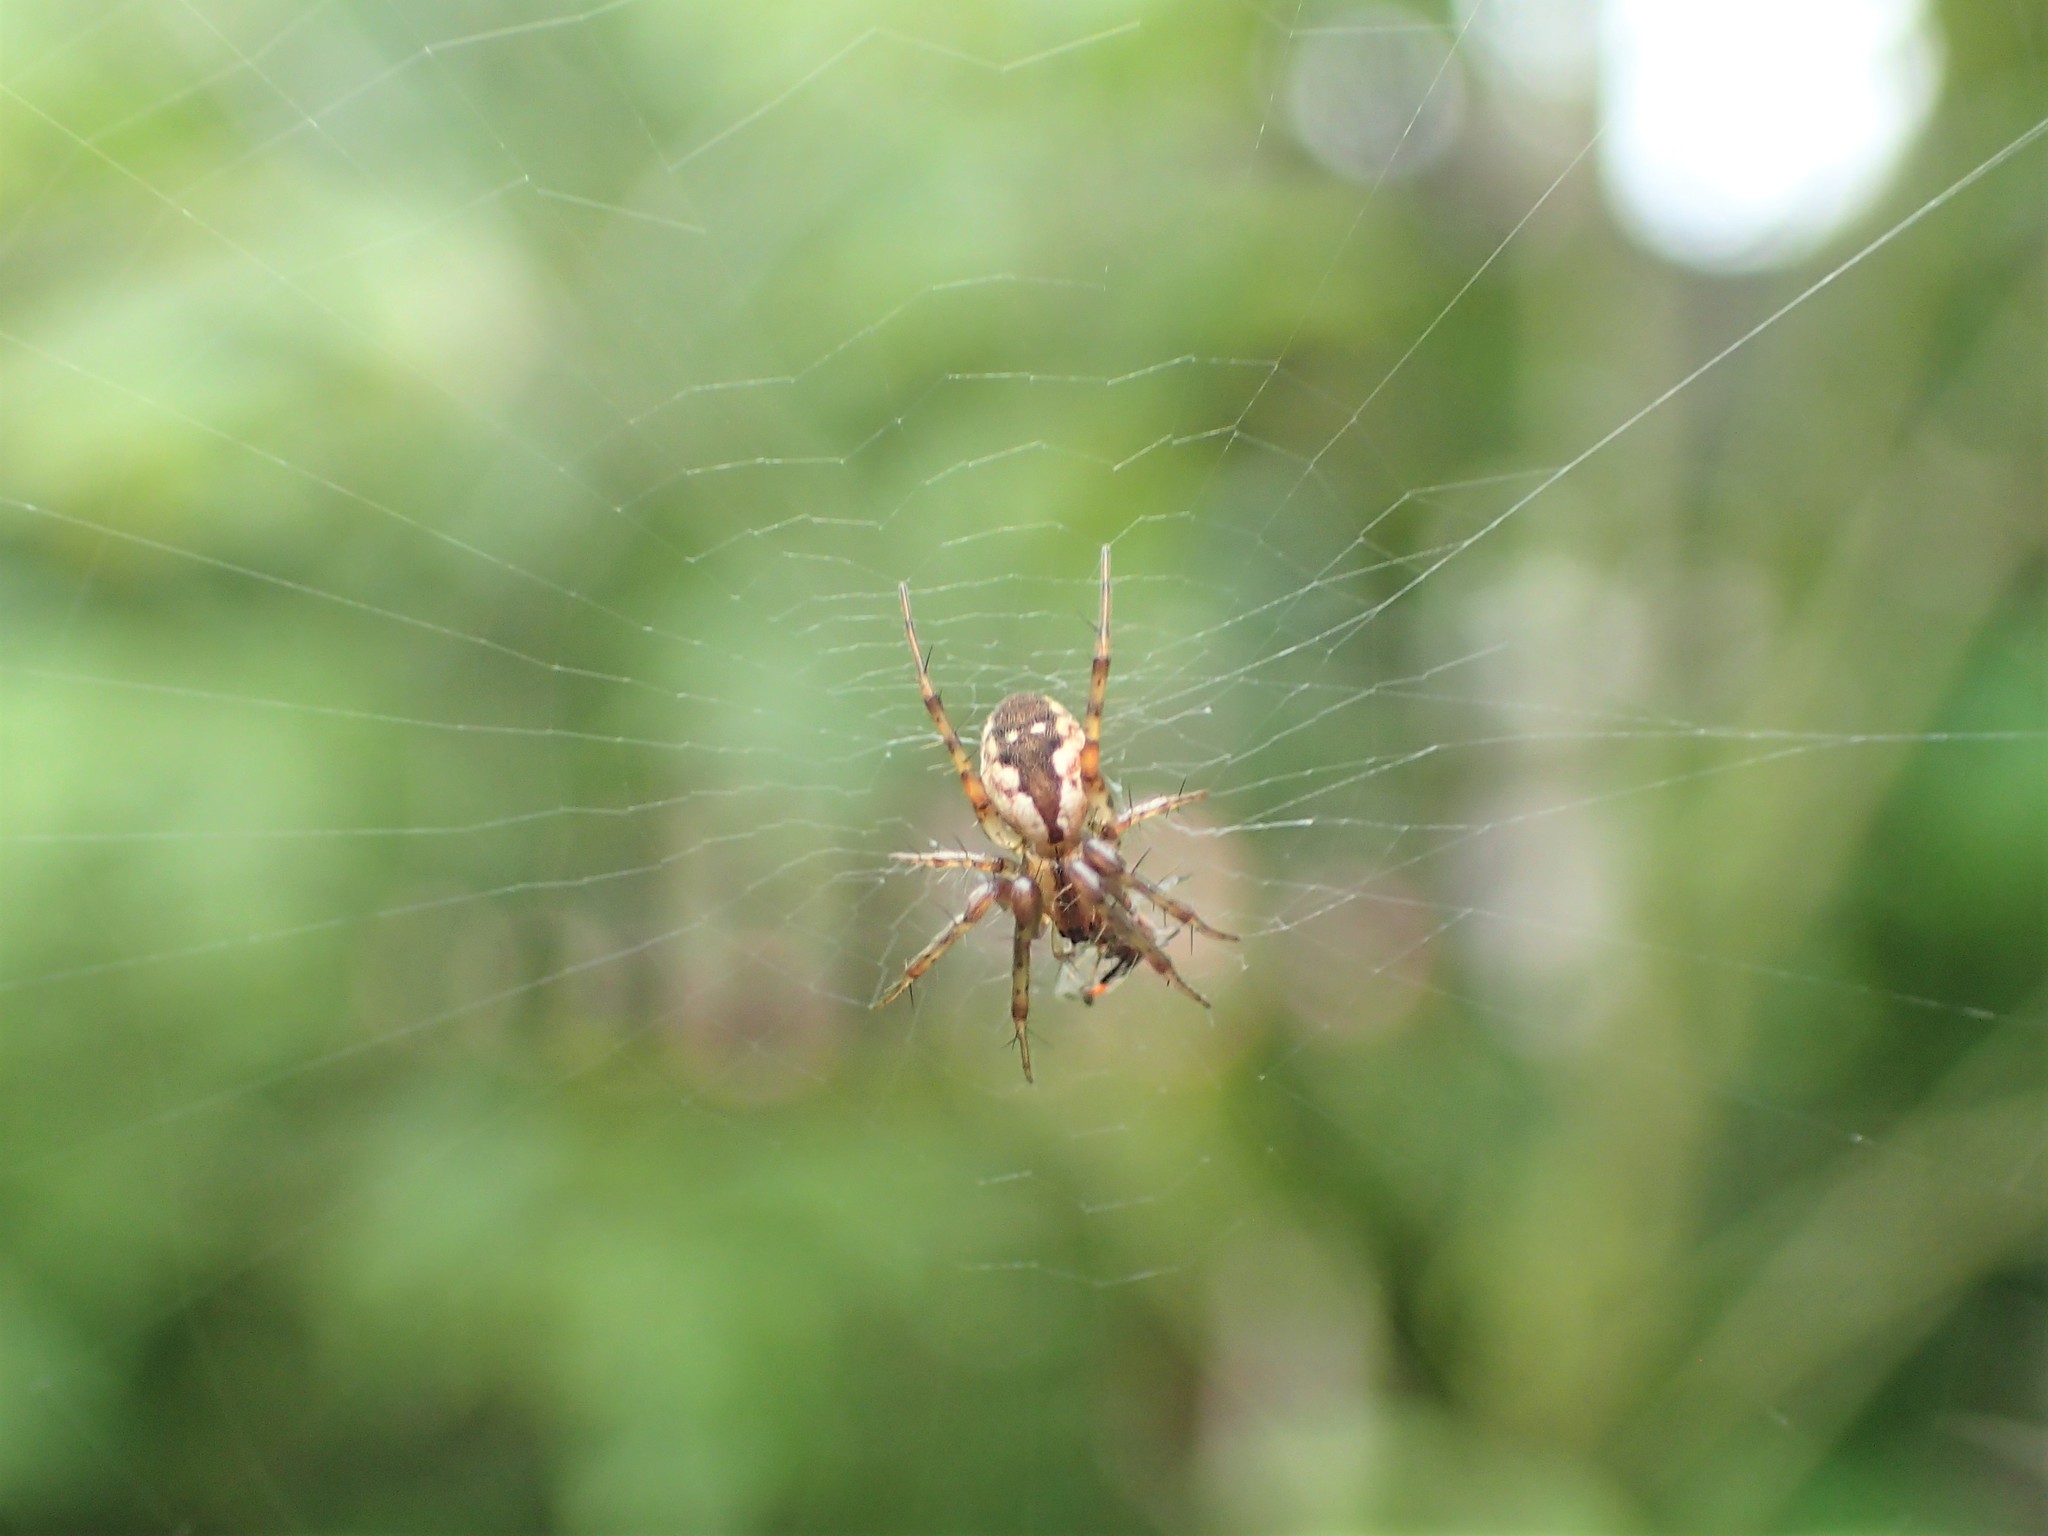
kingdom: Animalia
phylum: Arthropoda
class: Arachnida
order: Araneae
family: Araneidae
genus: Mangora
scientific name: Mangora placida
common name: Tuft-legged orbweaver
